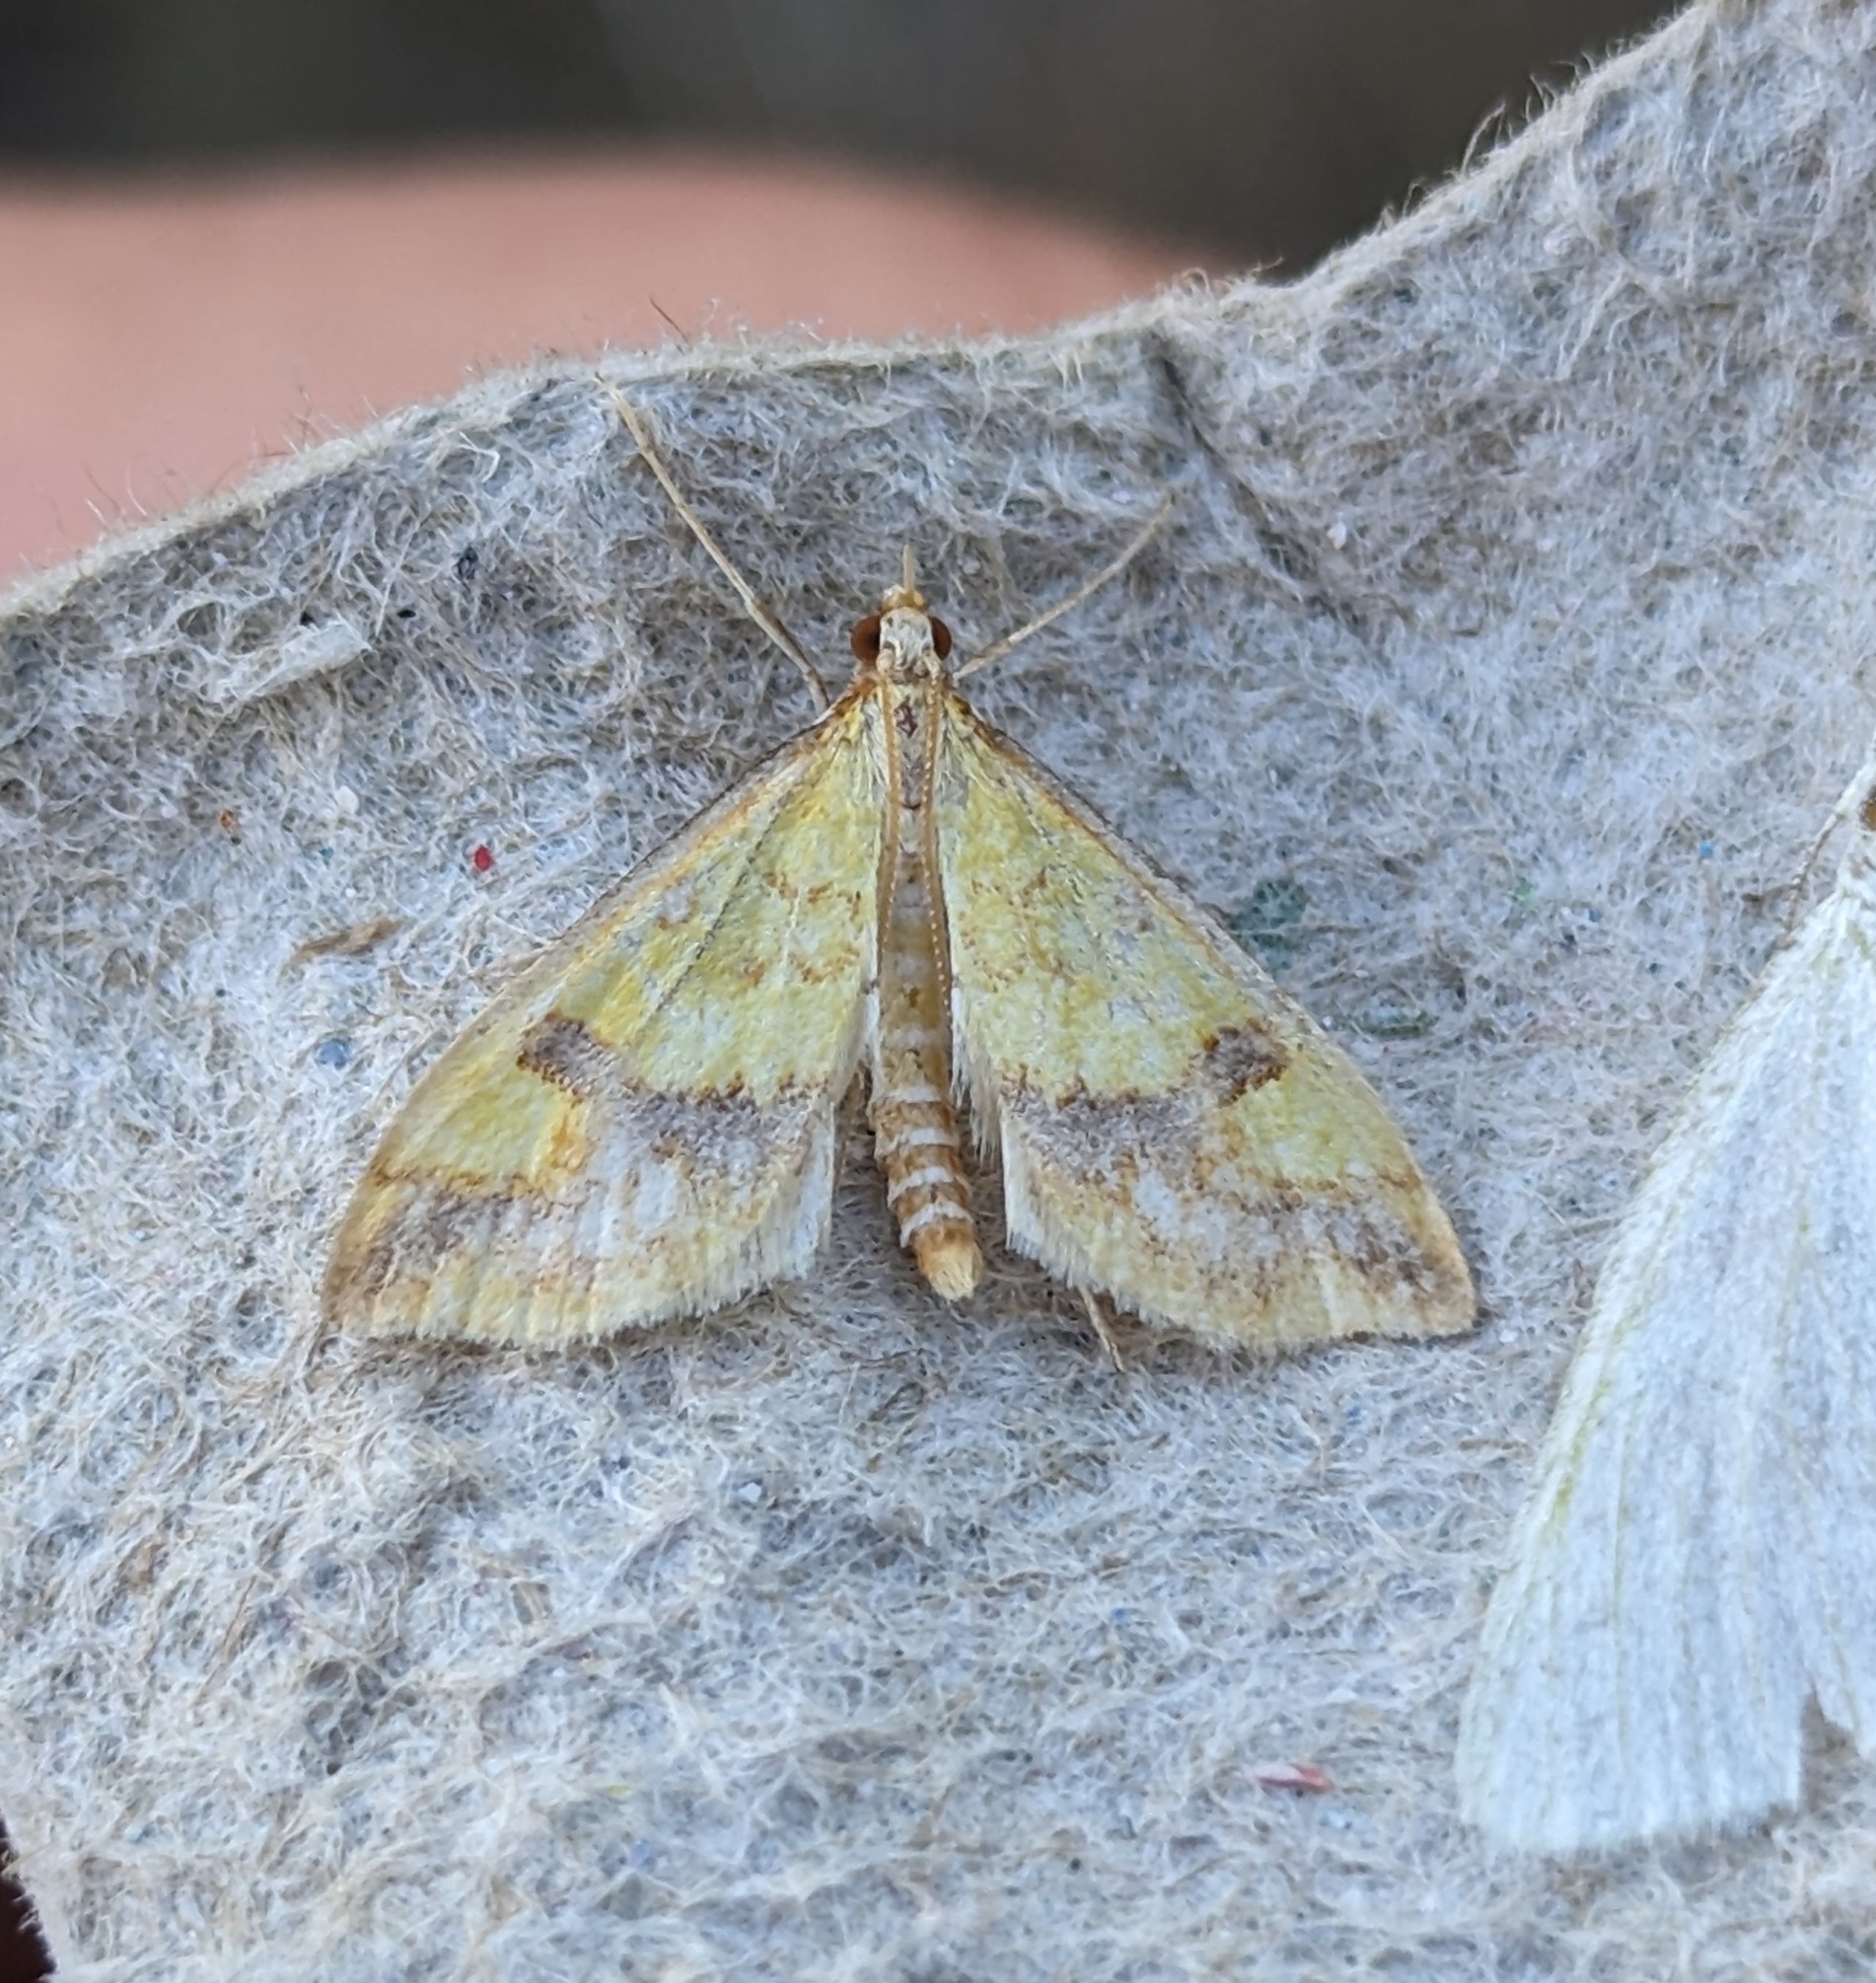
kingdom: Animalia
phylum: Arthropoda
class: Insecta
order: Lepidoptera
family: Crambidae
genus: Choristostigma
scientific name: Choristostigma plumbosignalis
